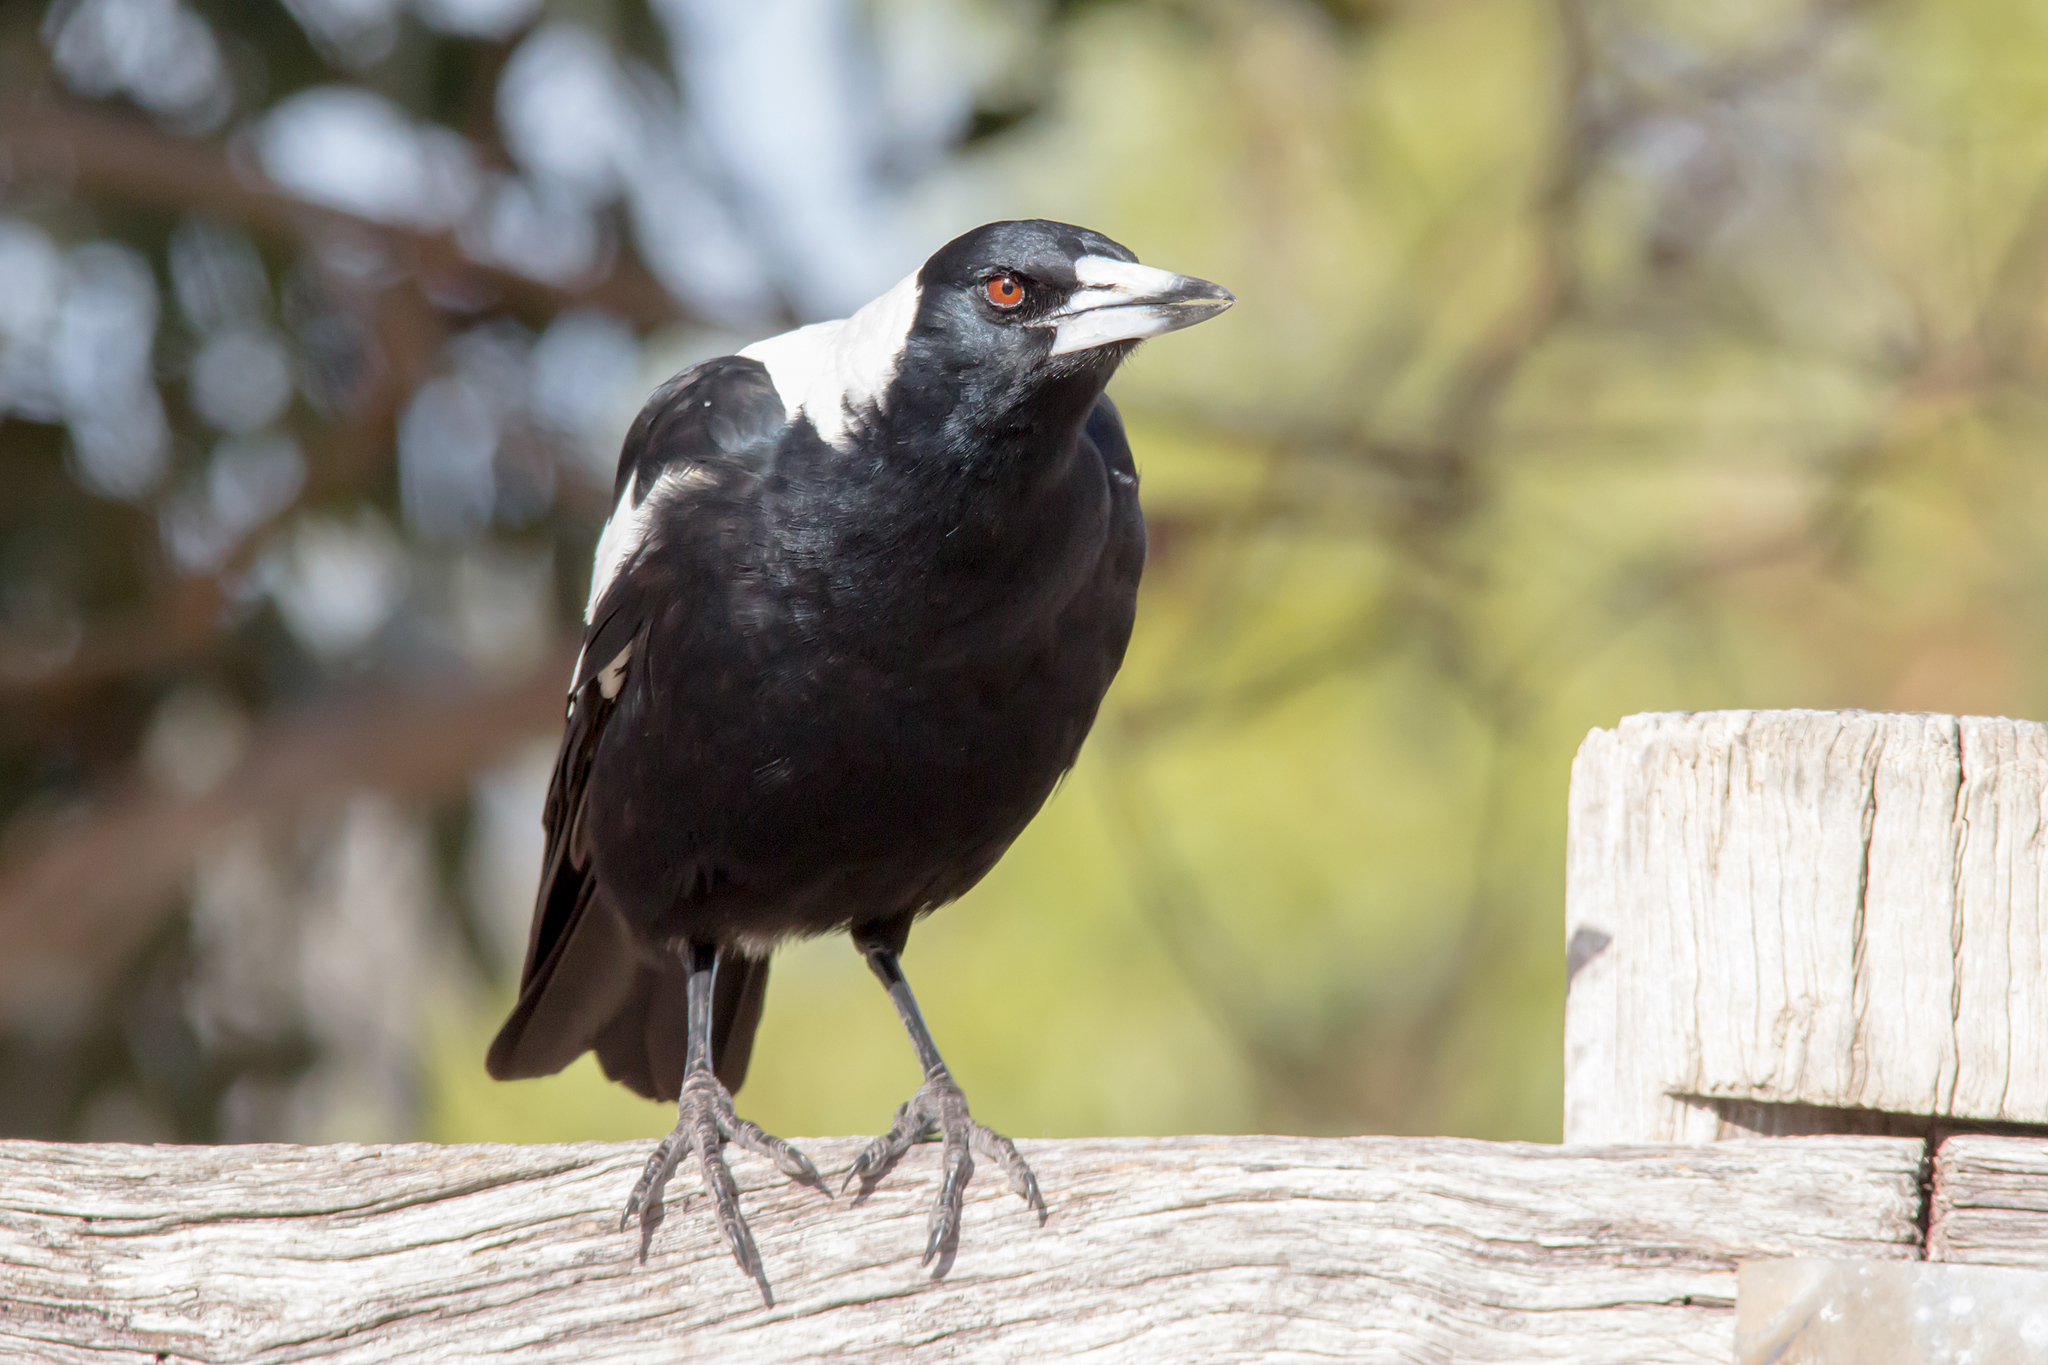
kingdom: Animalia
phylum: Chordata
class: Aves
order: Passeriformes
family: Cracticidae
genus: Gymnorhina
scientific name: Gymnorhina tibicen
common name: Australian magpie
